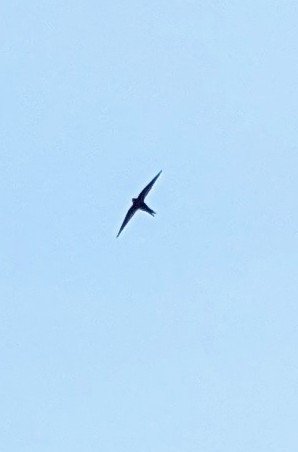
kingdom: Animalia
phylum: Chordata
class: Aves
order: Apodiformes
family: Apodidae
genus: Apus
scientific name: Apus apus
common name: Common swift
